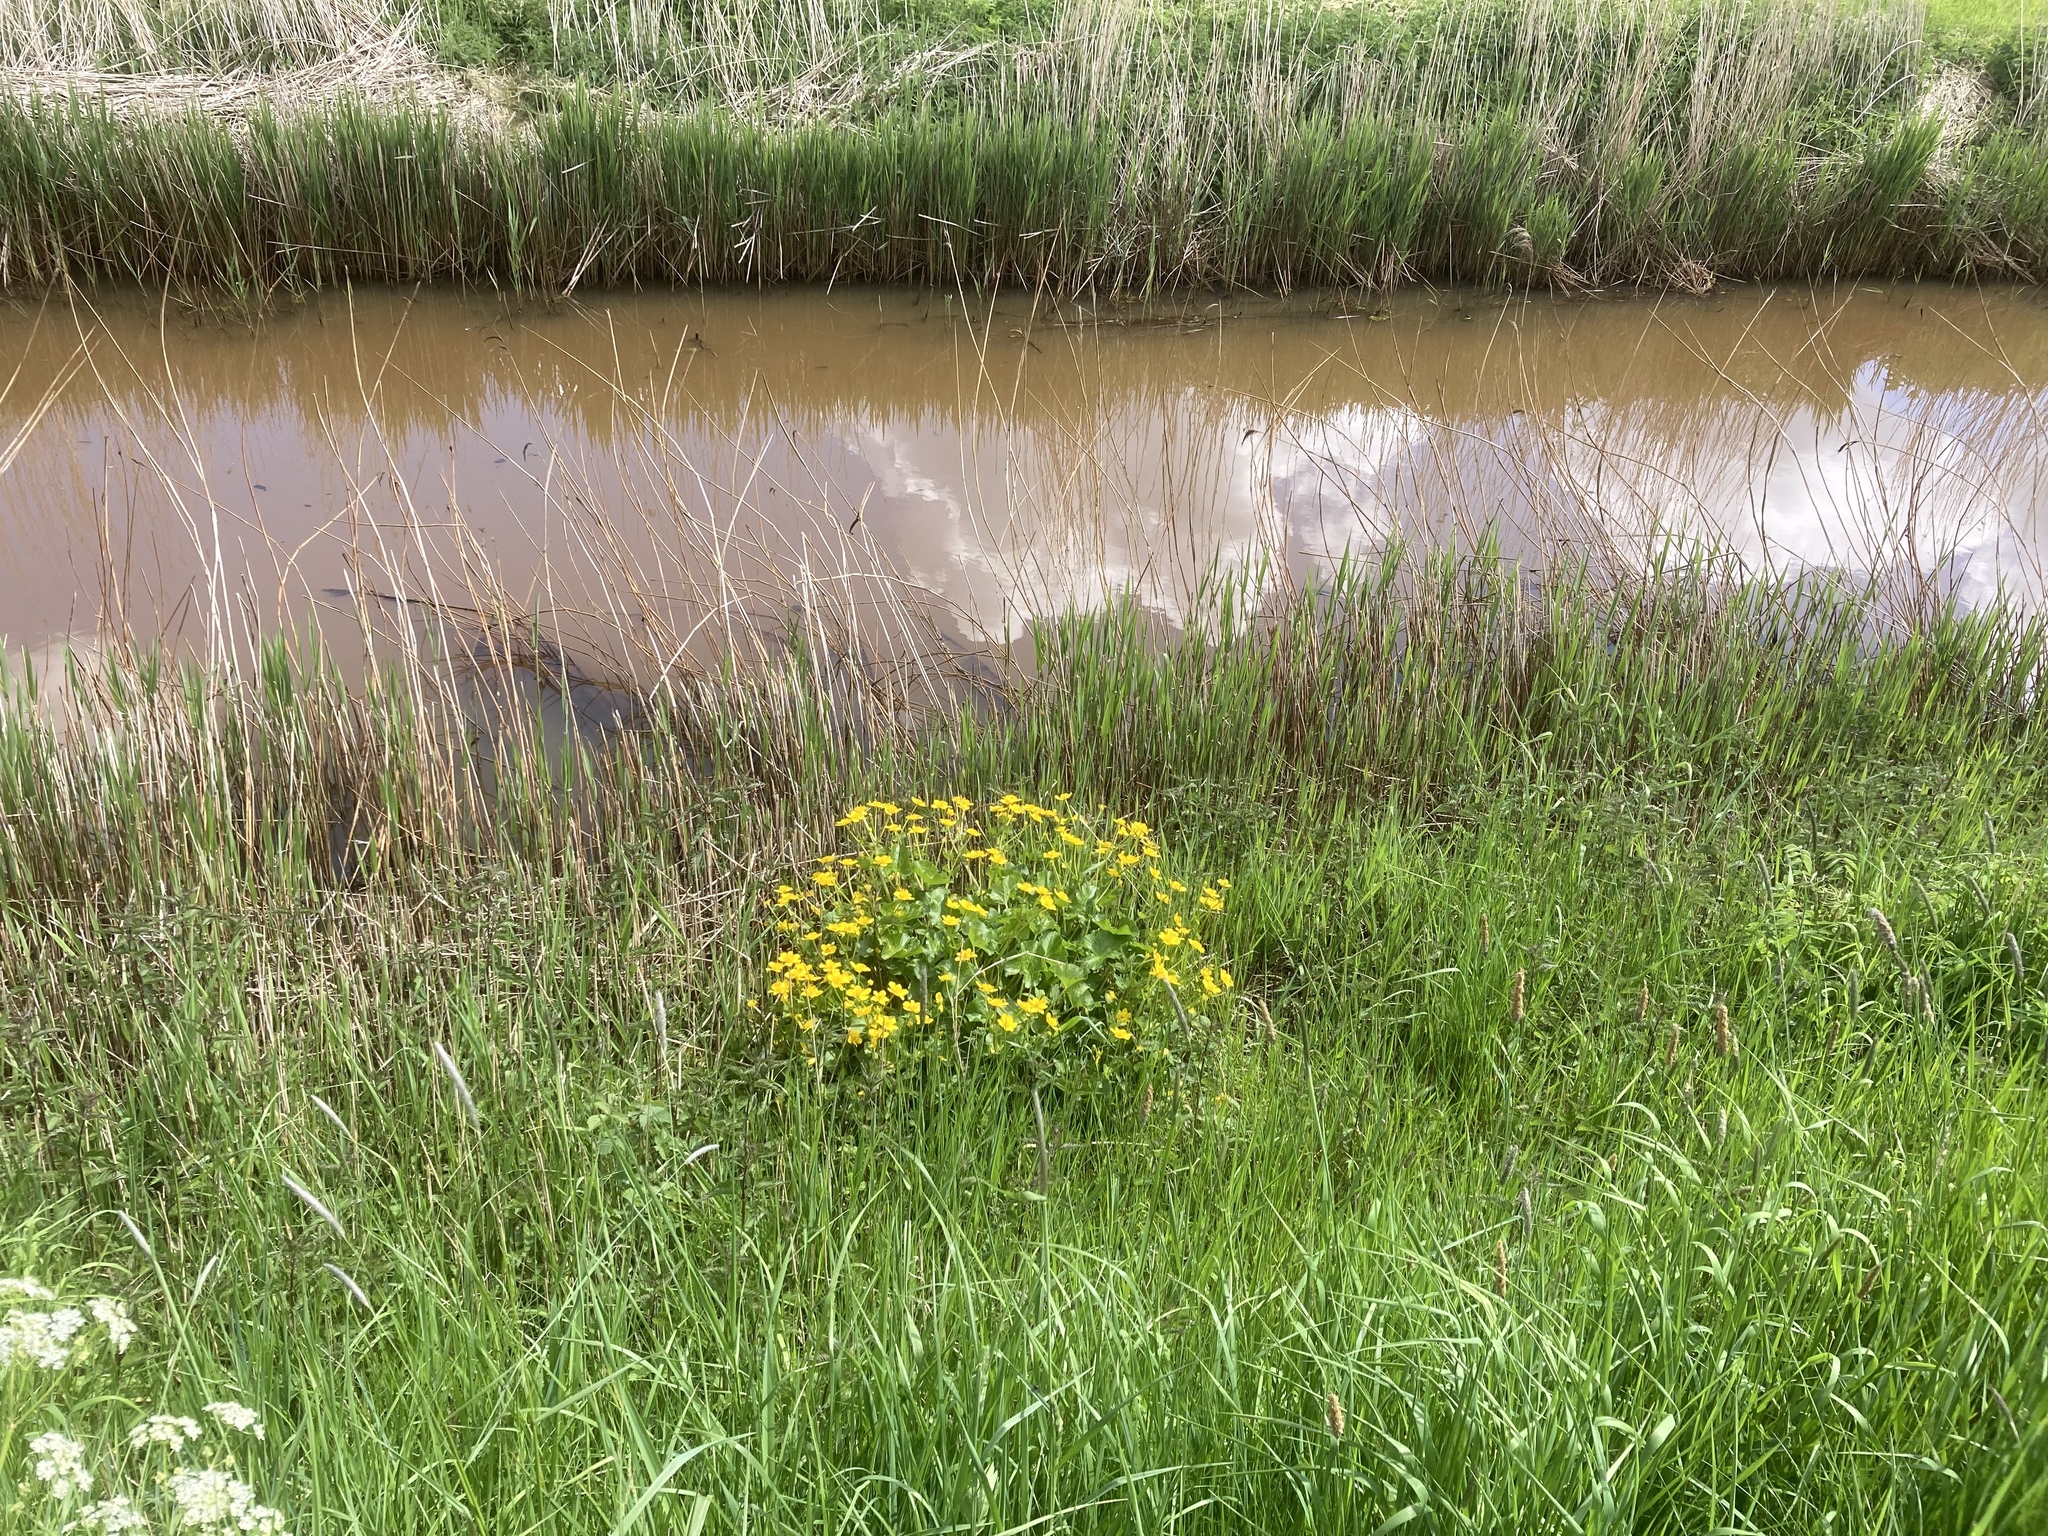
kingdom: Plantae
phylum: Tracheophyta
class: Magnoliopsida
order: Ranunculales
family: Ranunculaceae
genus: Caltha
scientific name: Caltha palustris
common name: Marsh marigold
